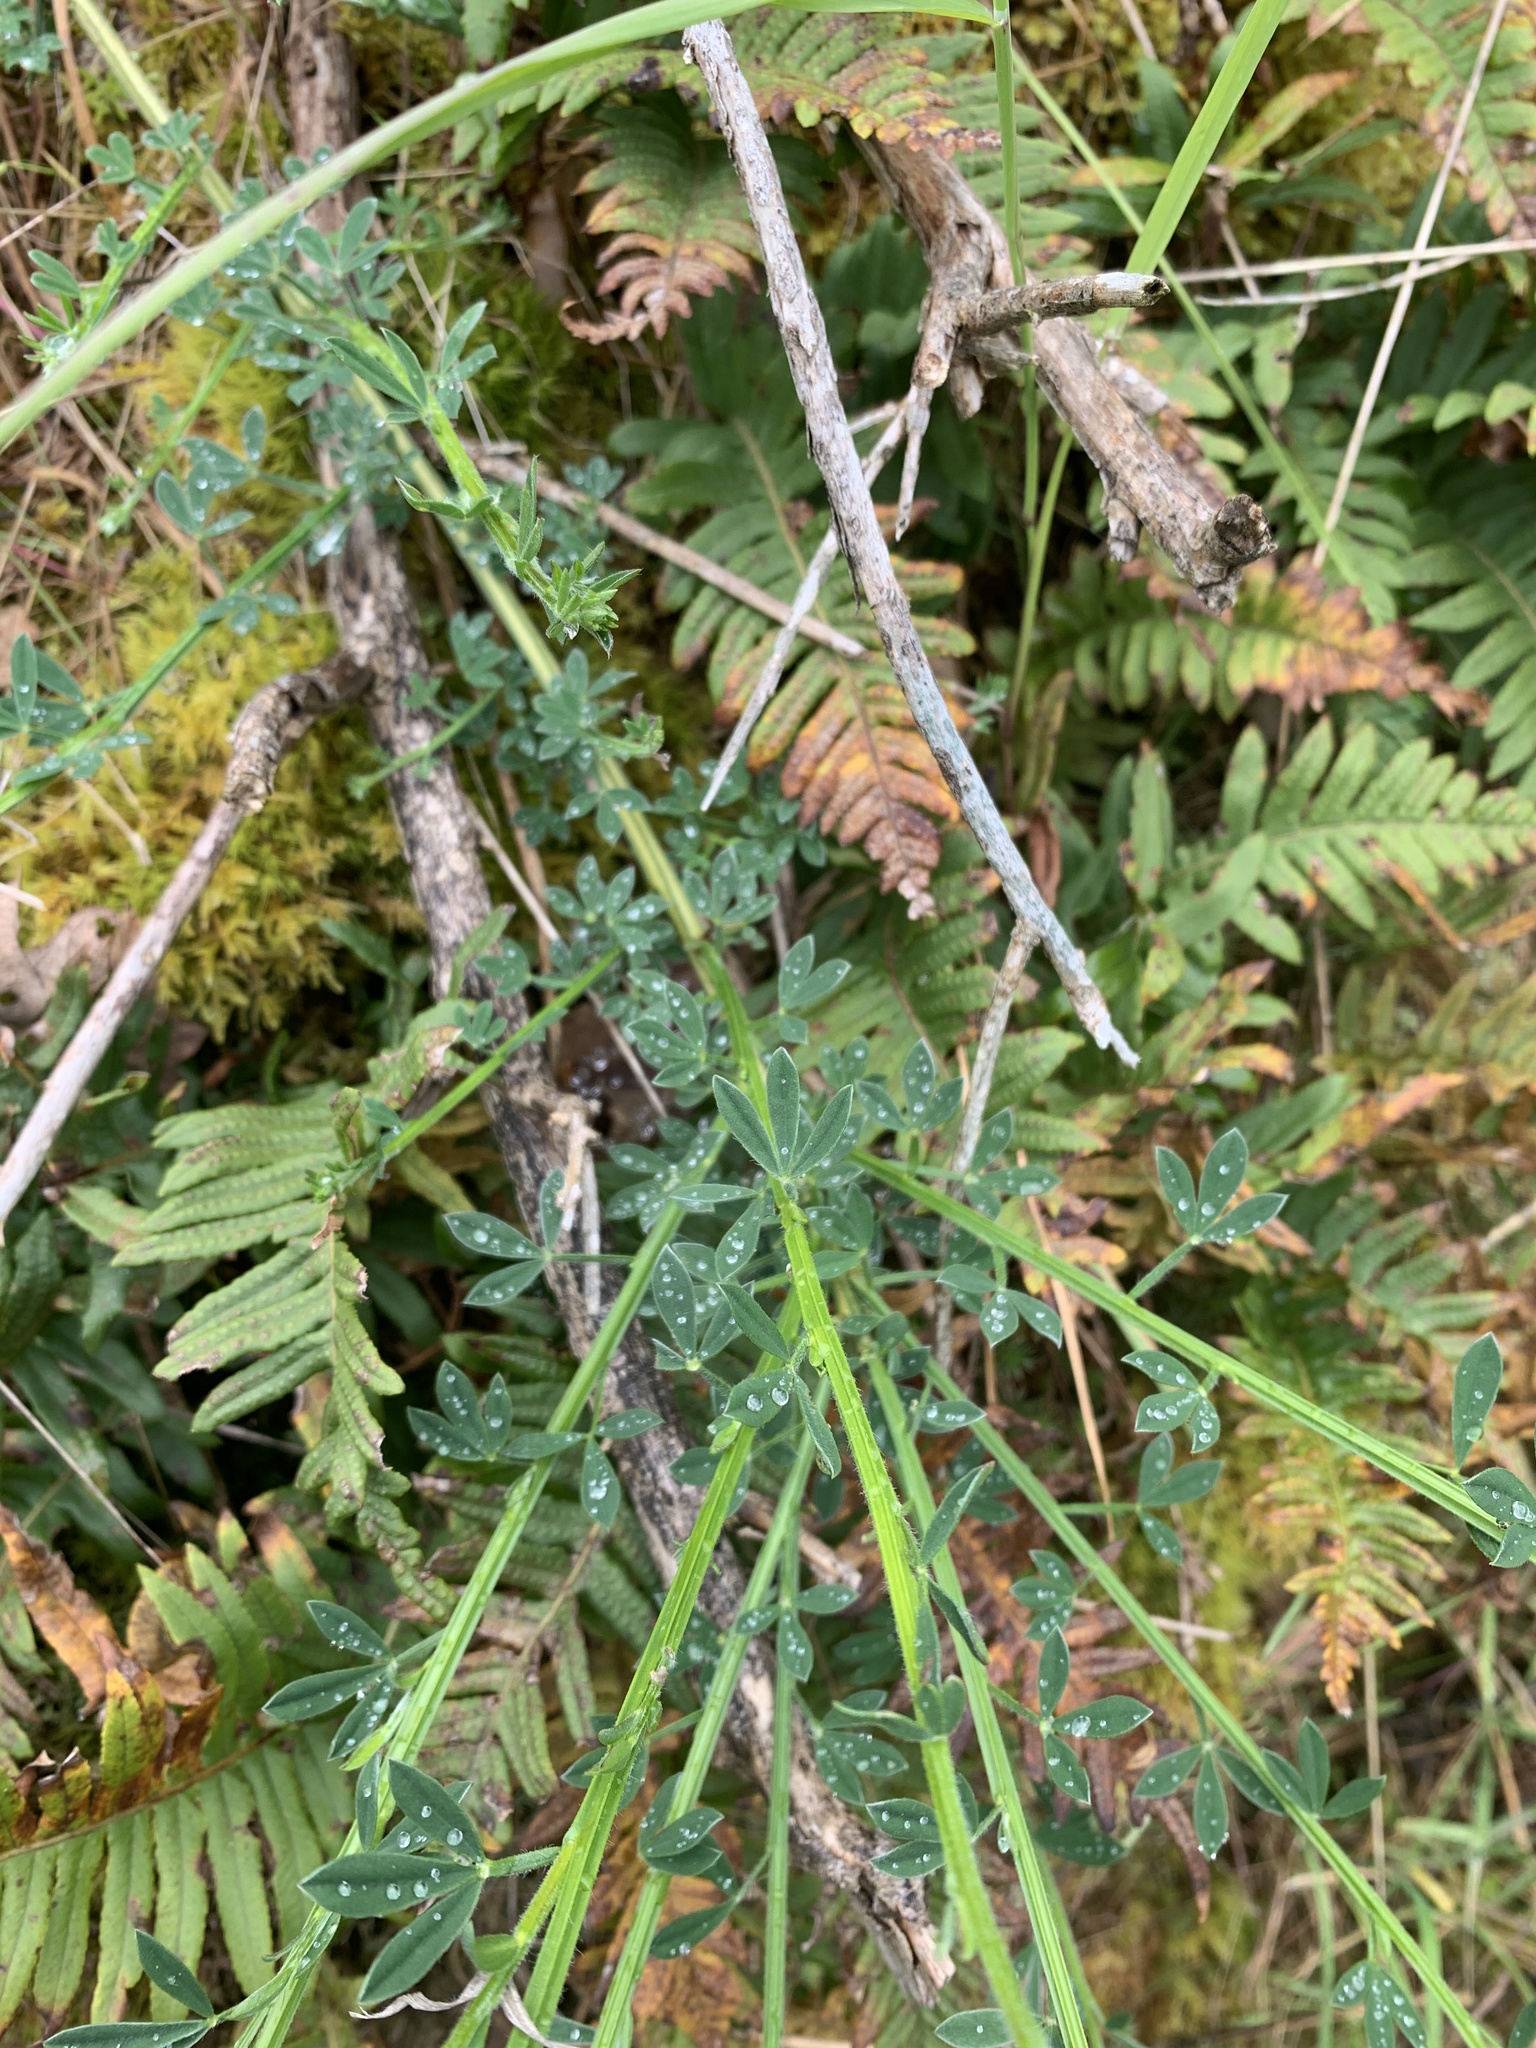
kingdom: Plantae
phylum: Tracheophyta
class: Magnoliopsida
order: Fabales
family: Fabaceae
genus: Cytisus
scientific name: Cytisus scoparius
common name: Scotch broom
